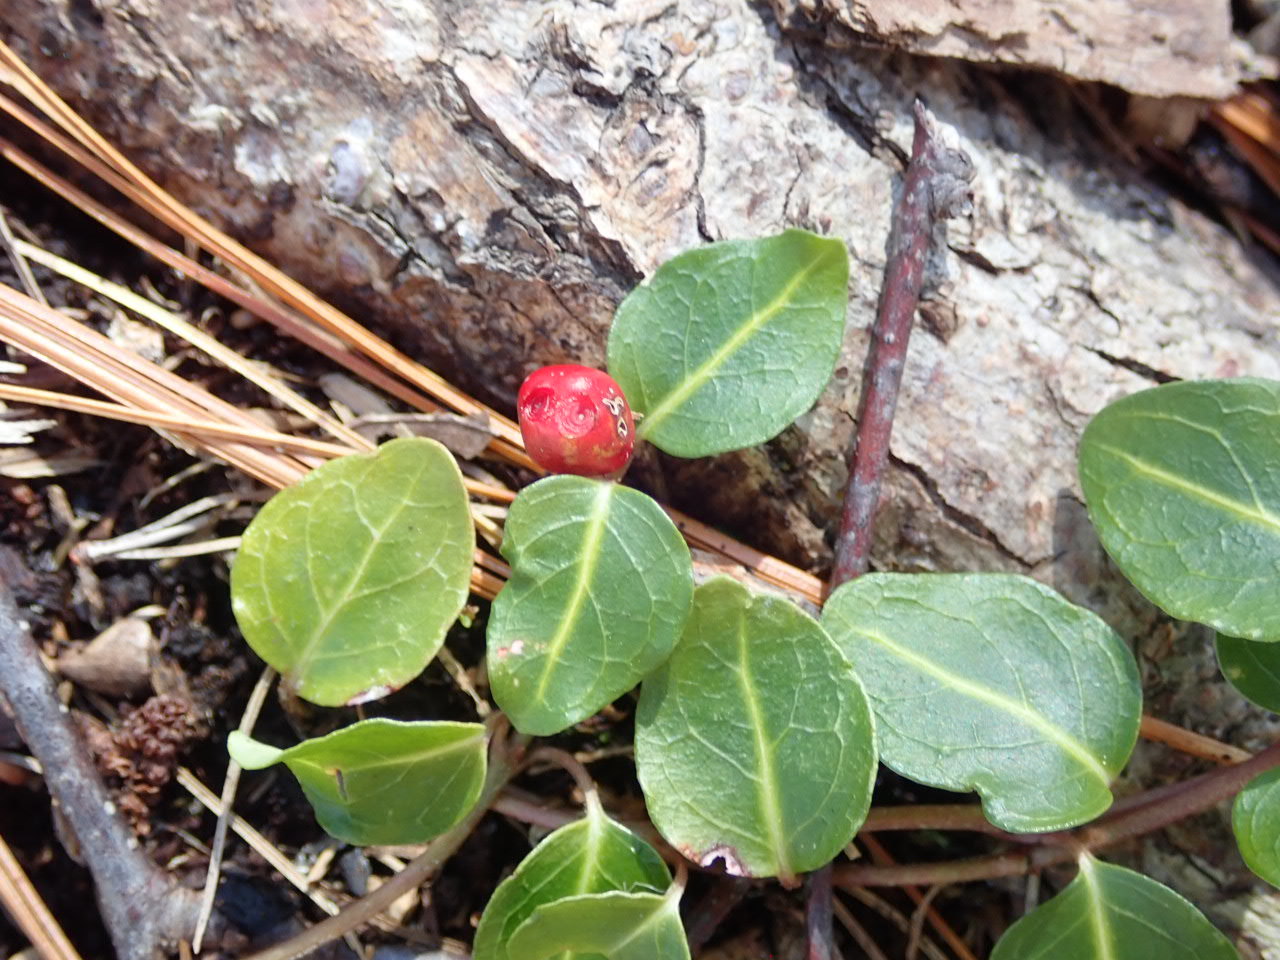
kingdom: Plantae
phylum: Tracheophyta
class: Magnoliopsida
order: Gentianales
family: Rubiaceae
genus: Mitchella
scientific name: Mitchella repens
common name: Partridge-berry
